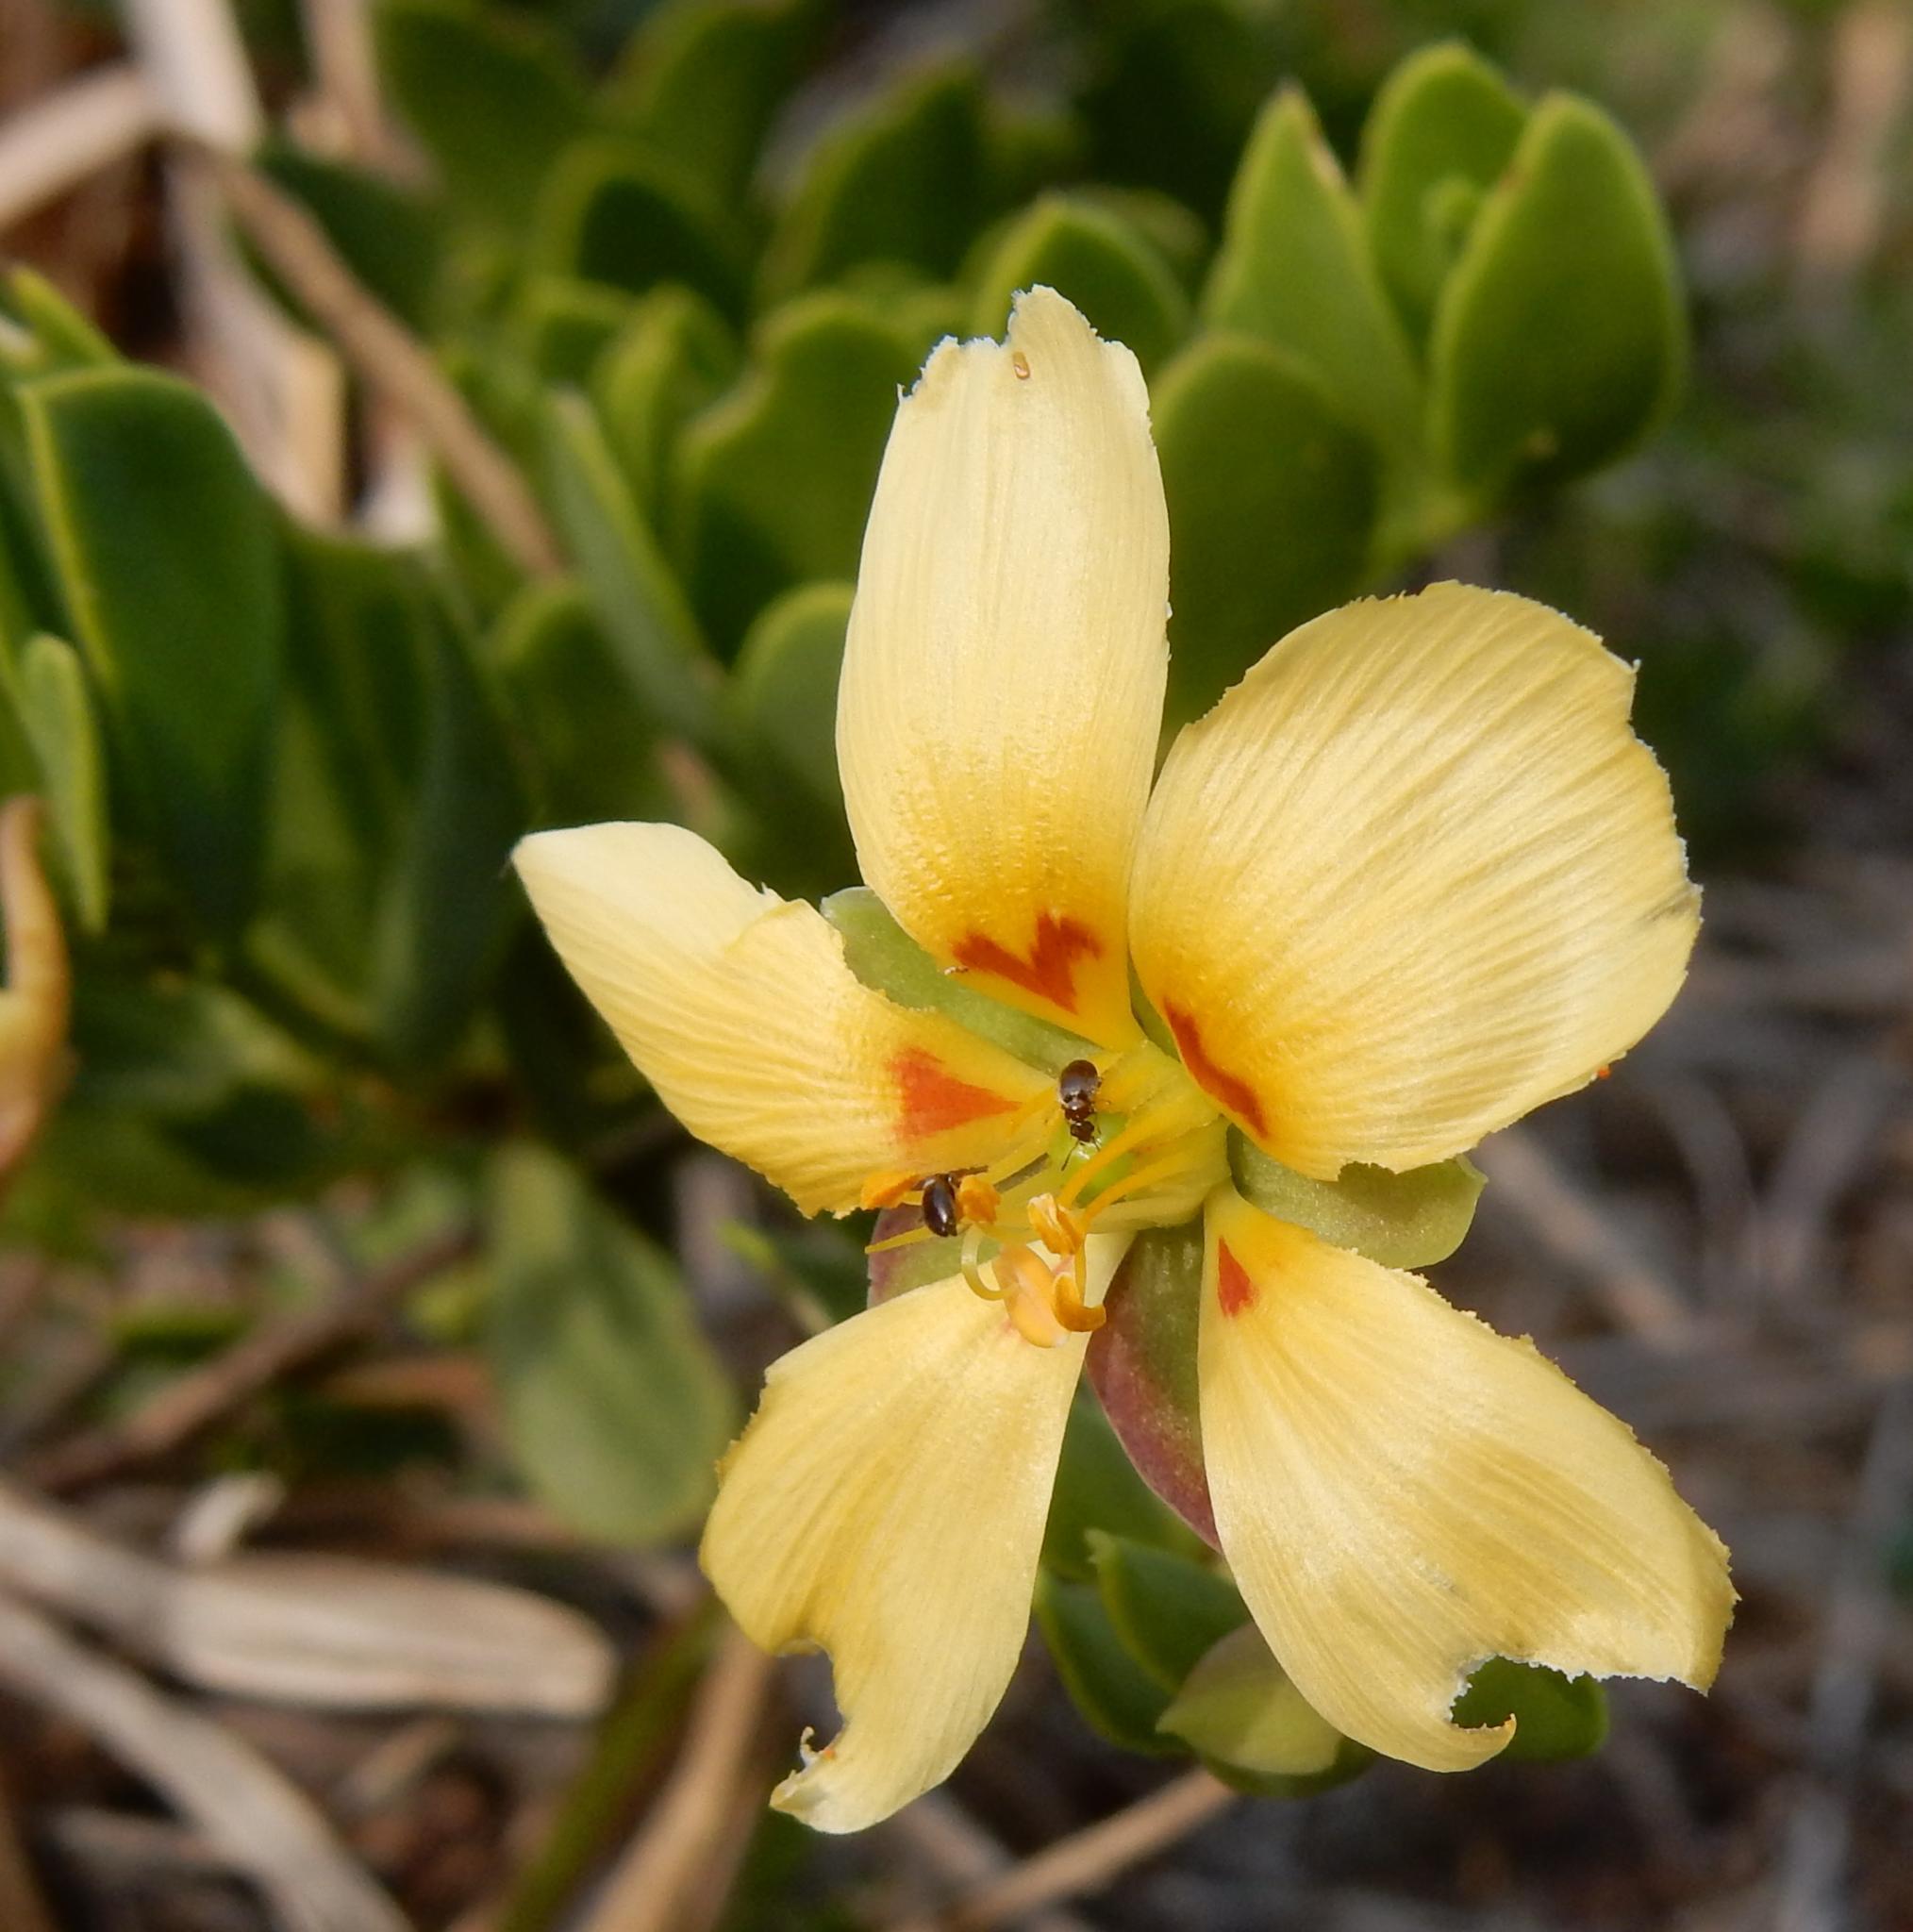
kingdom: Plantae
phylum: Tracheophyta
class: Magnoliopsida
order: Zygophyllales
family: Zygophyllaceae
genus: Roepera
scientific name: Roepera maritima
